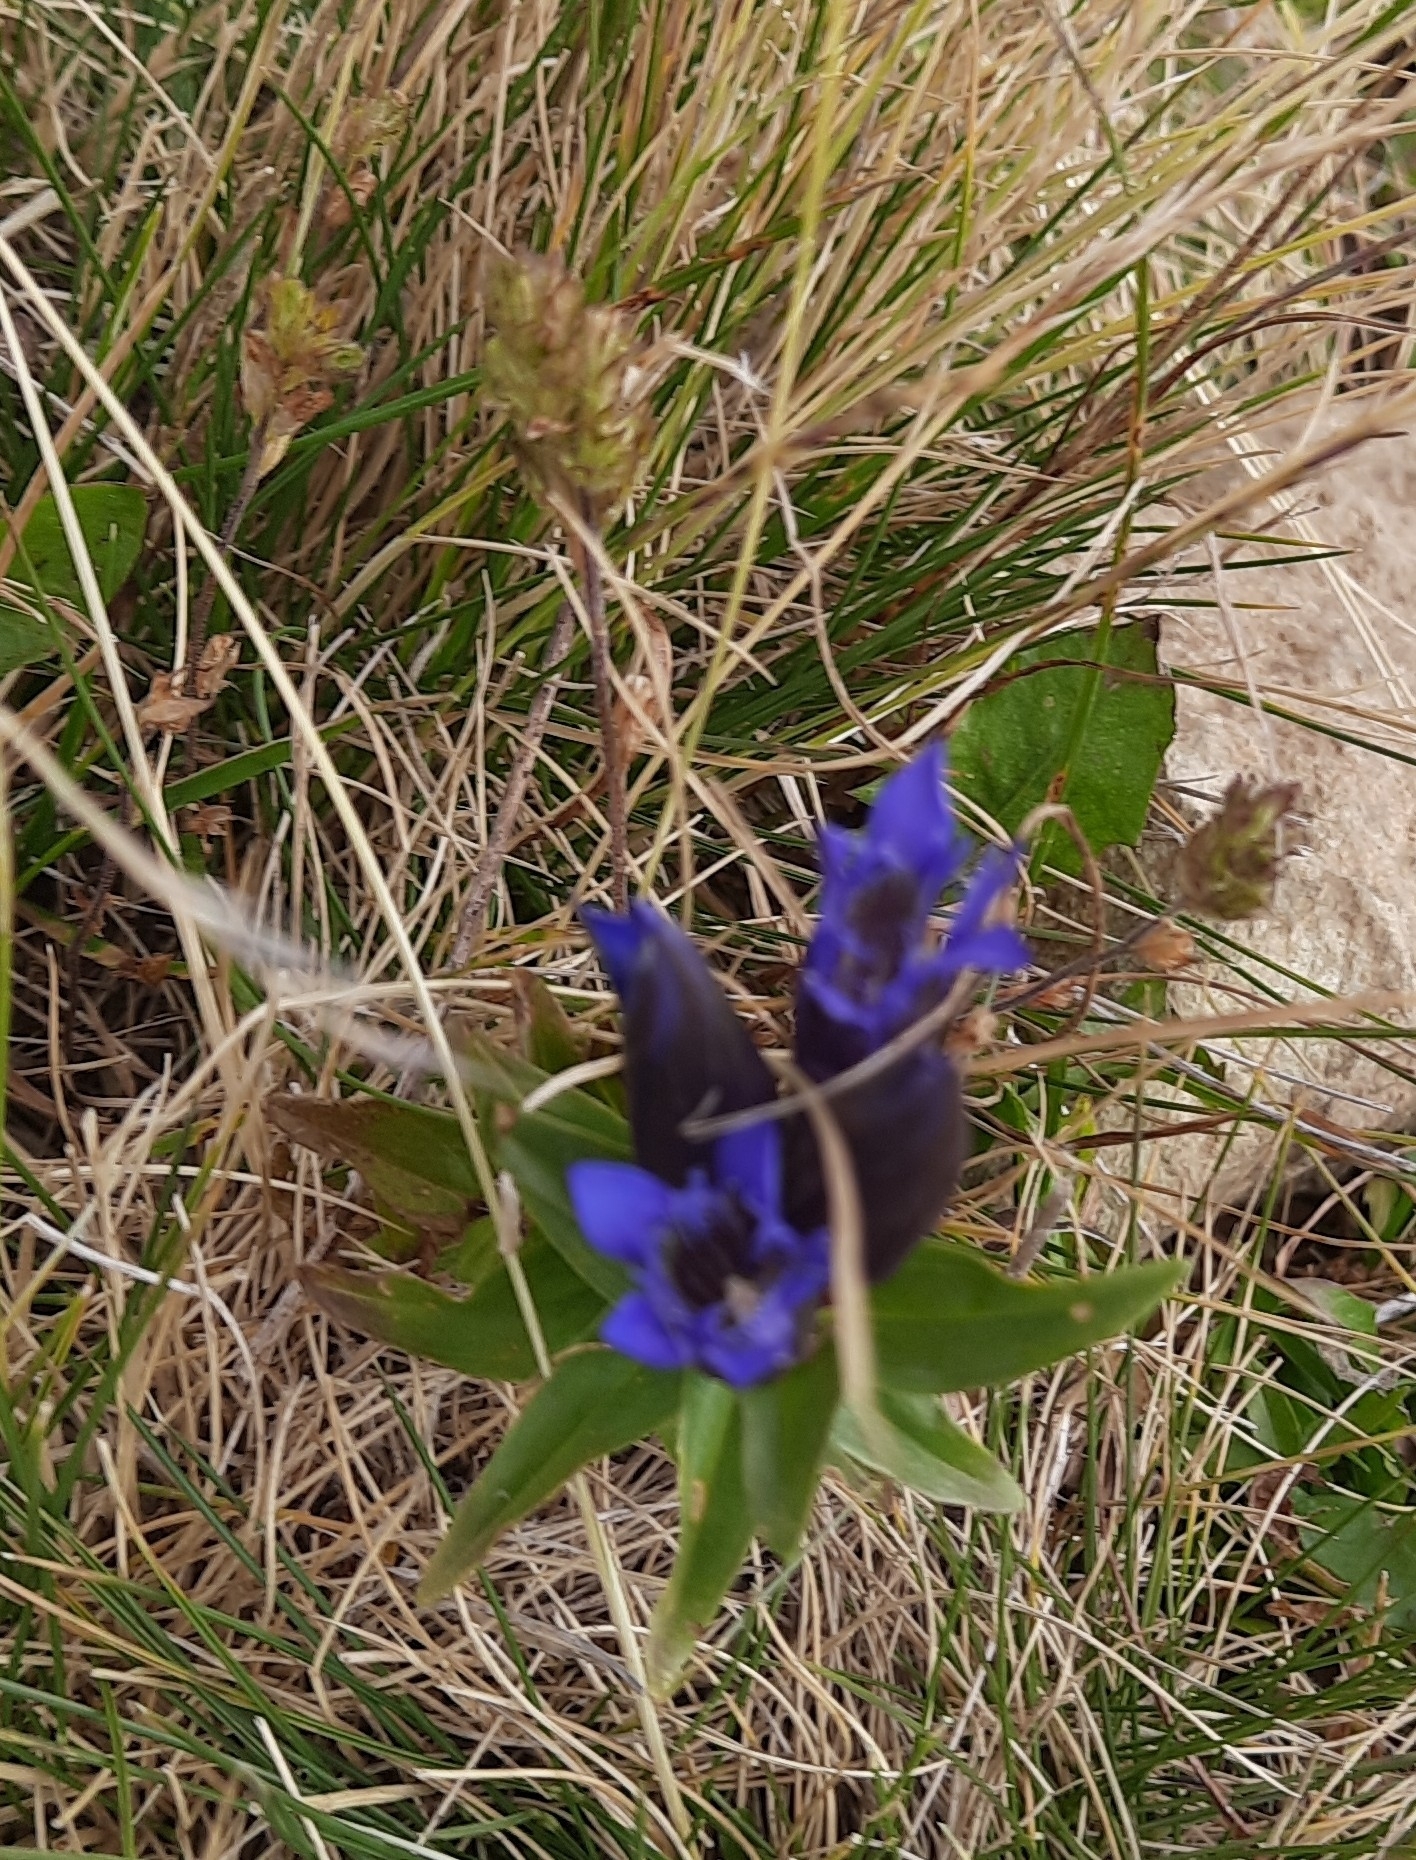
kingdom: Plantae
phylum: Tracheophyta
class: Magnoliopsida
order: Gentianales
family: Gentianaceae
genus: Gentiana
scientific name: Gentiana septemfida
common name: Crested gentian
